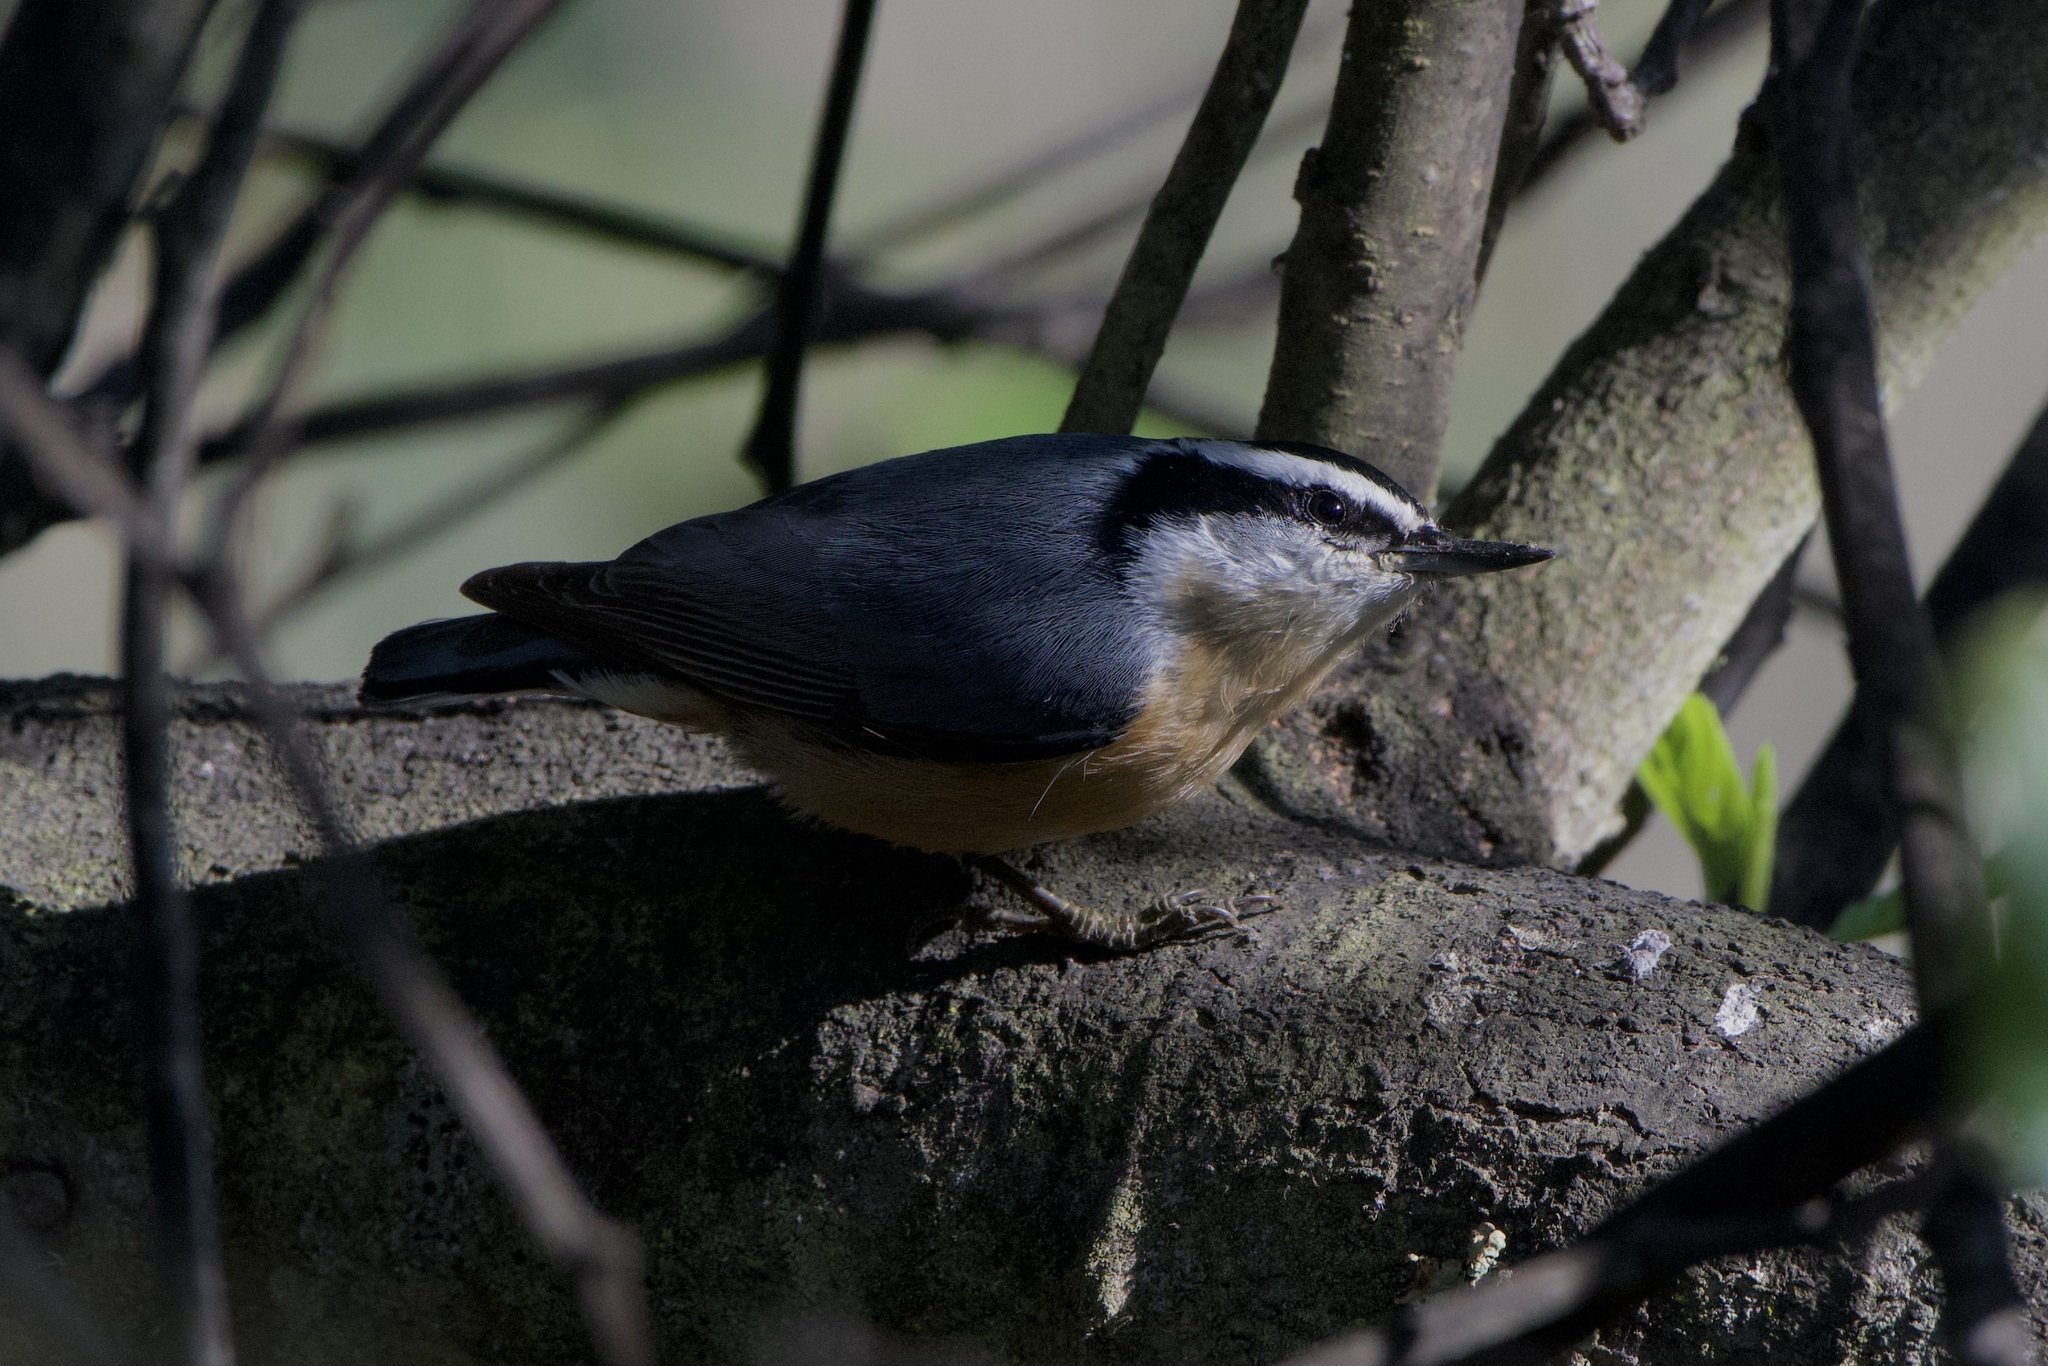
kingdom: Animalia
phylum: Chordata
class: Aves
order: Passeriformes
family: Sittidae
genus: Sitta
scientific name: Sitta canadensis
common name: Red-breasted nuthatch
